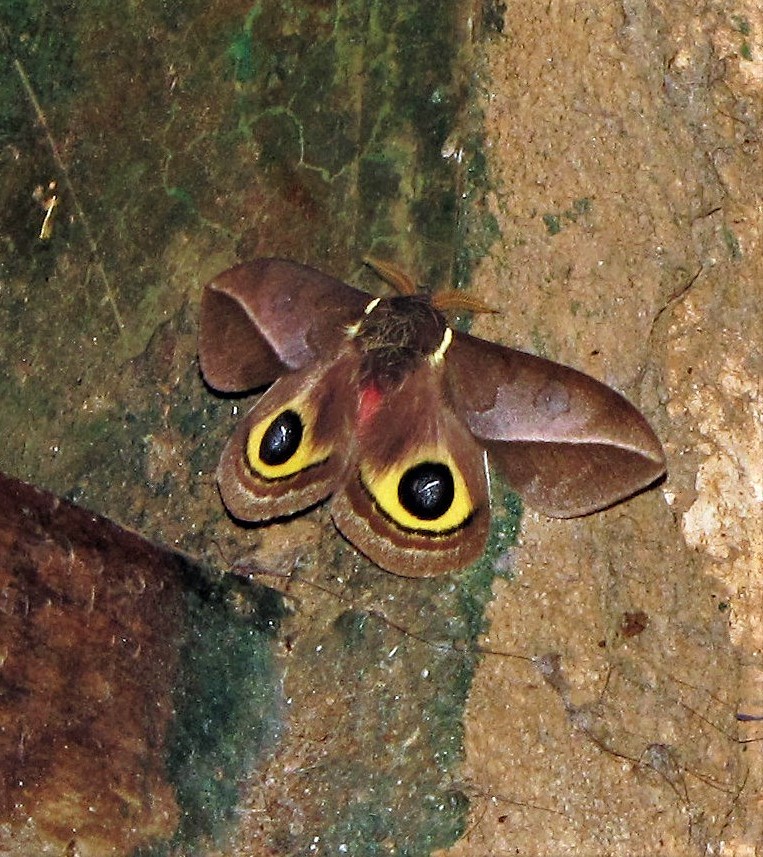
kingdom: Animalia
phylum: Arthropoda
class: Insecta
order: Lepidoptera
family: Saturniidae
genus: Automeris
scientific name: Automeris basalis
